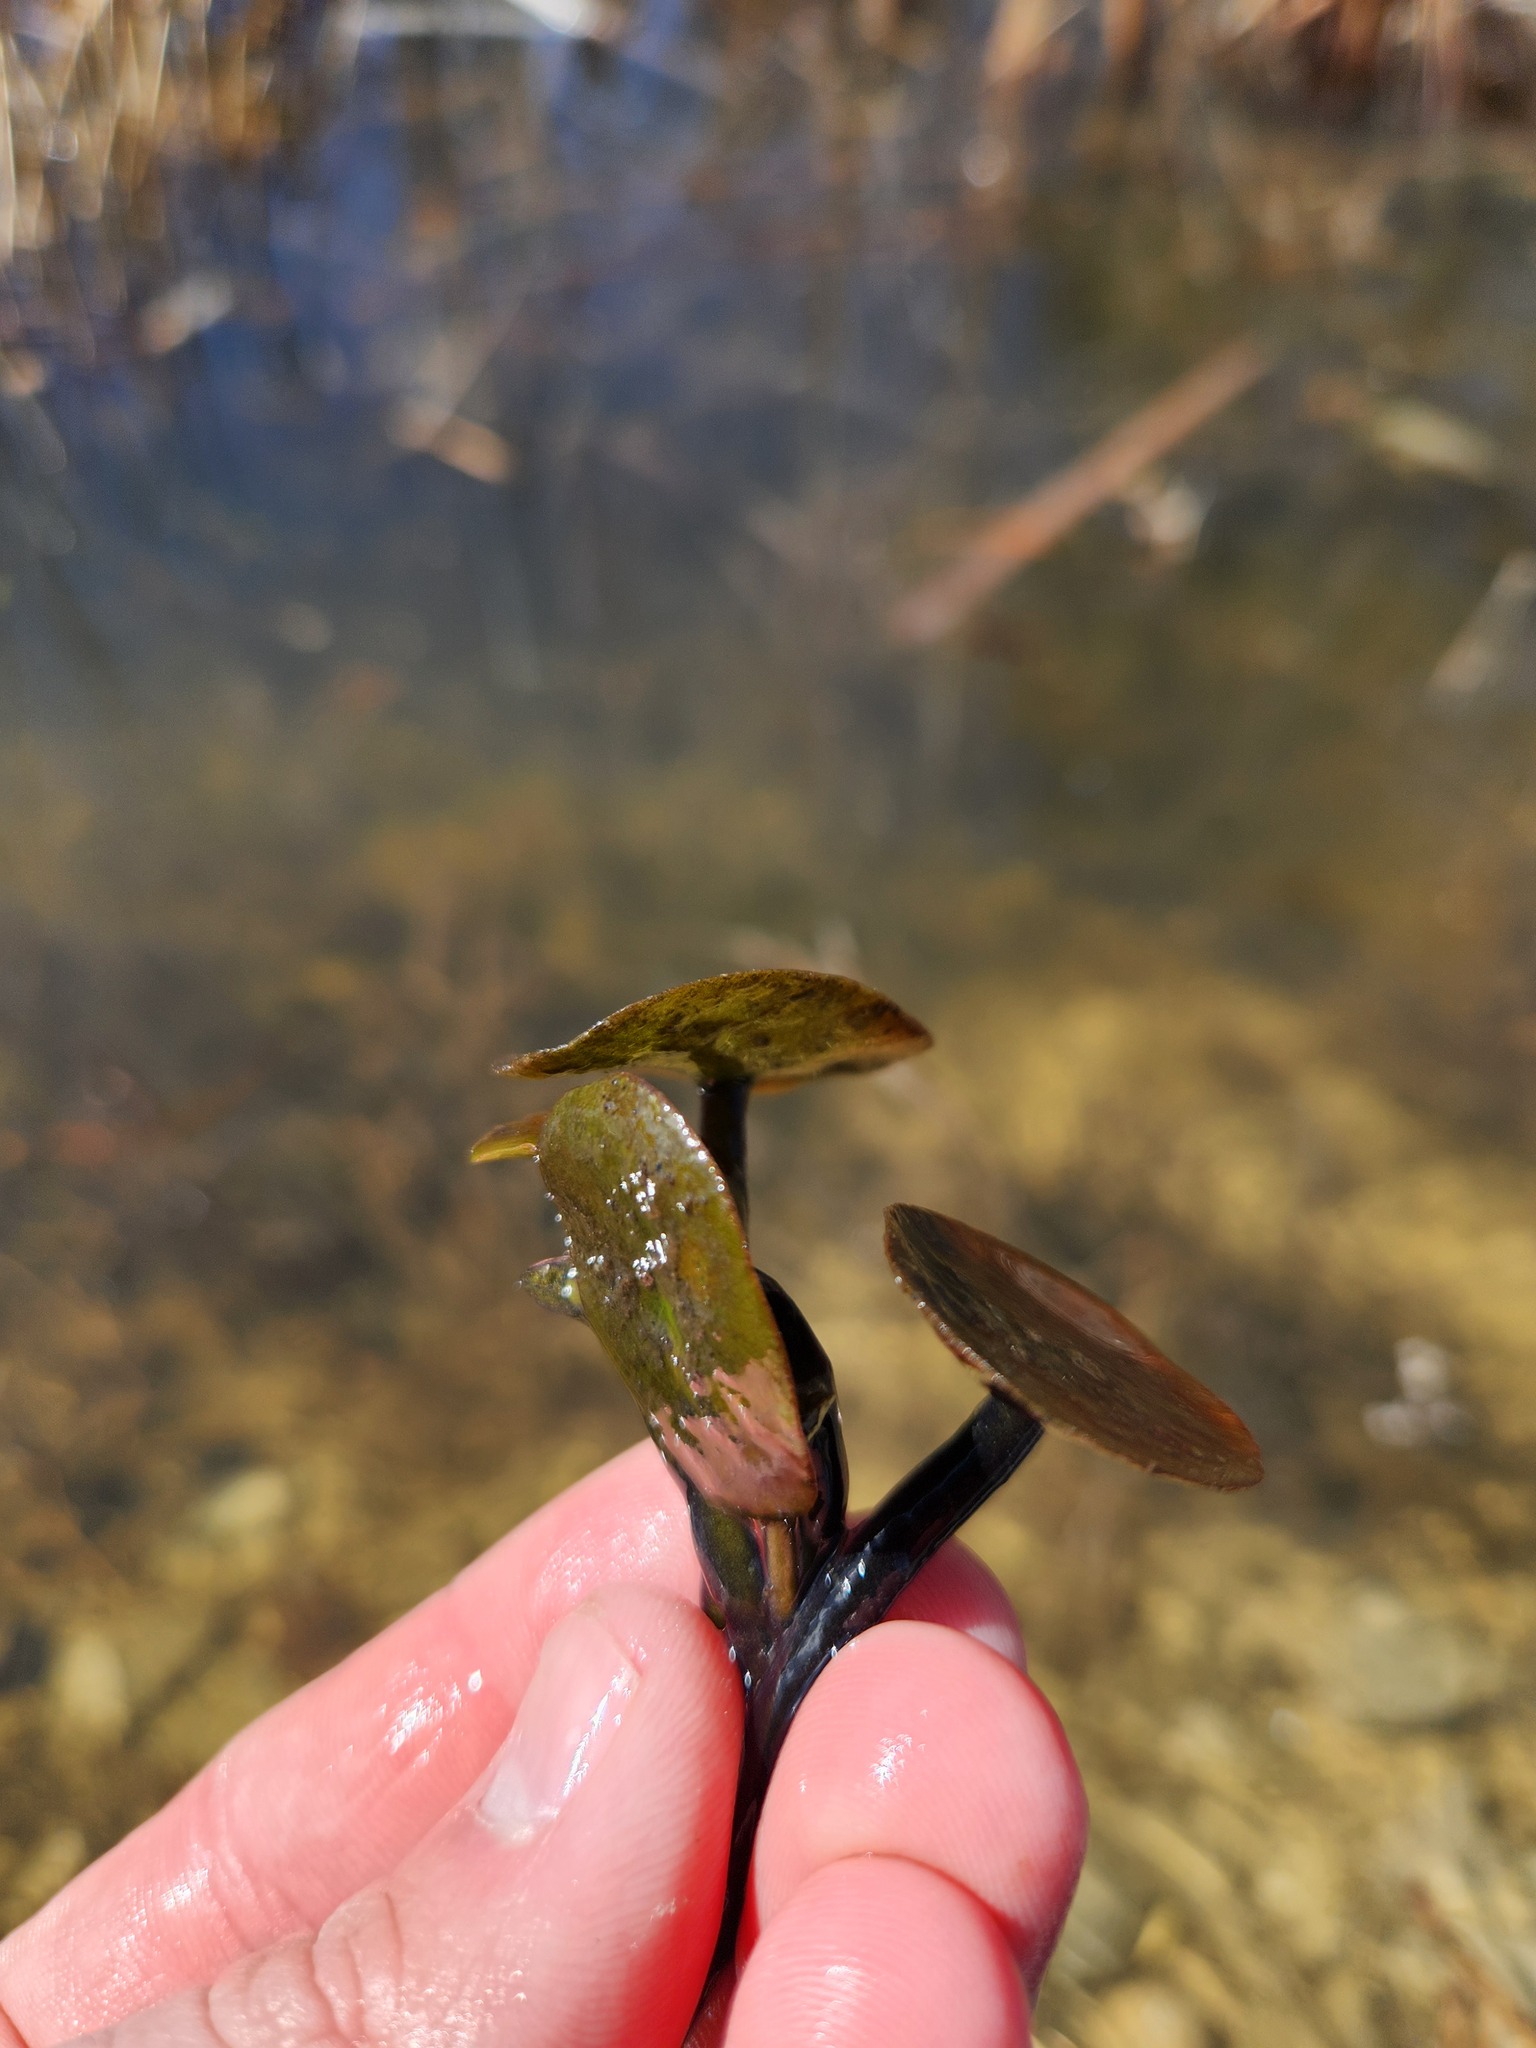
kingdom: Plantae
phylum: Tracheophyta
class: Magnoliopsida
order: Nymphaeales
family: Cabombaceae
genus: Brasenia
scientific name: Brasenia schreberi
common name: Water-shield
